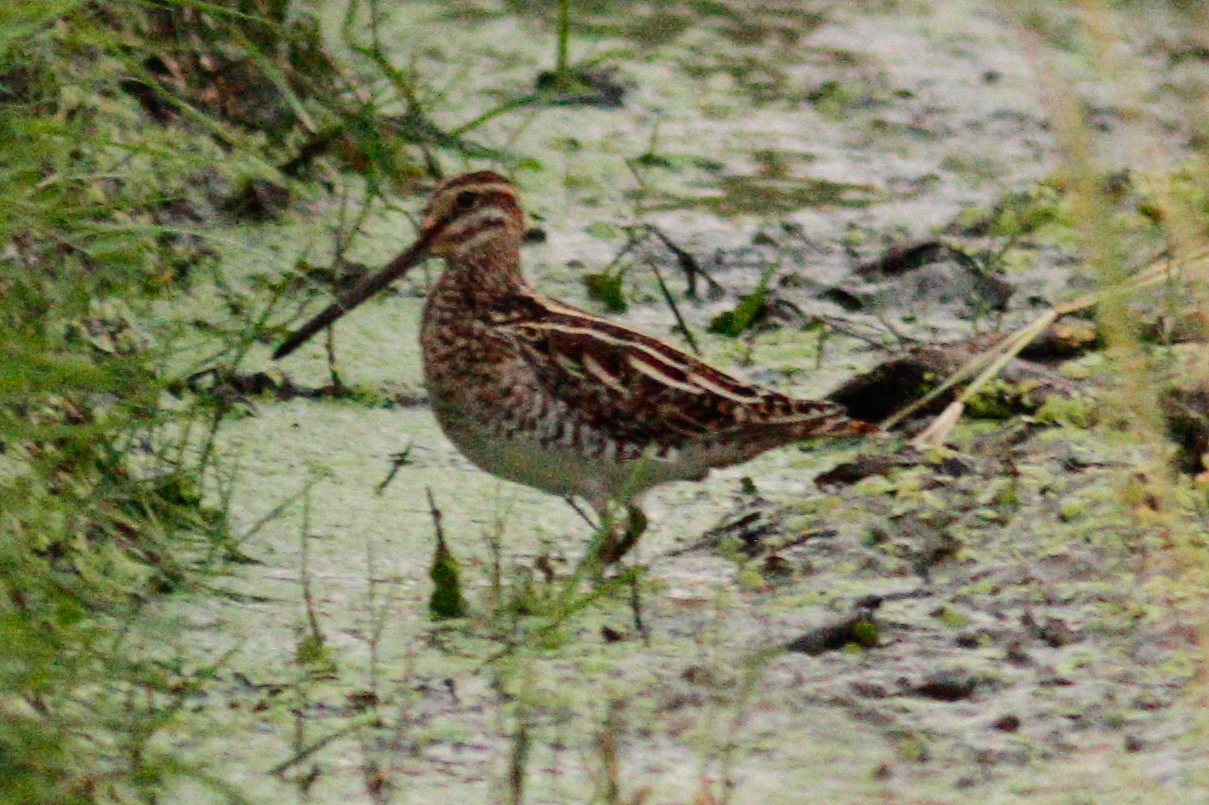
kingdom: Animalia
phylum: Chordata
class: Aves
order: Charadriiformes
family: Scolopacidae
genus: Gallinago
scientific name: Gallinago gallinago
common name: Common snipe
